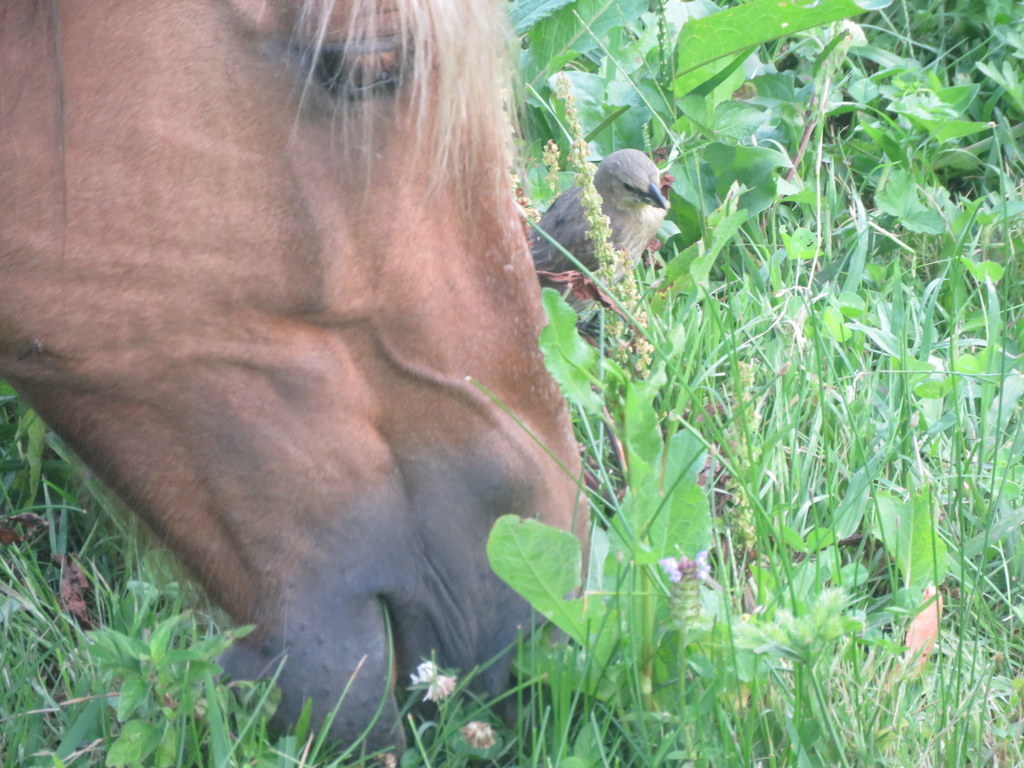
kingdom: Animalia
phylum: Chordata
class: Aves
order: Passeriformes
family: Icteridae
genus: Molothrus
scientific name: Molothrus bonariensis
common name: Shiny cowbird
